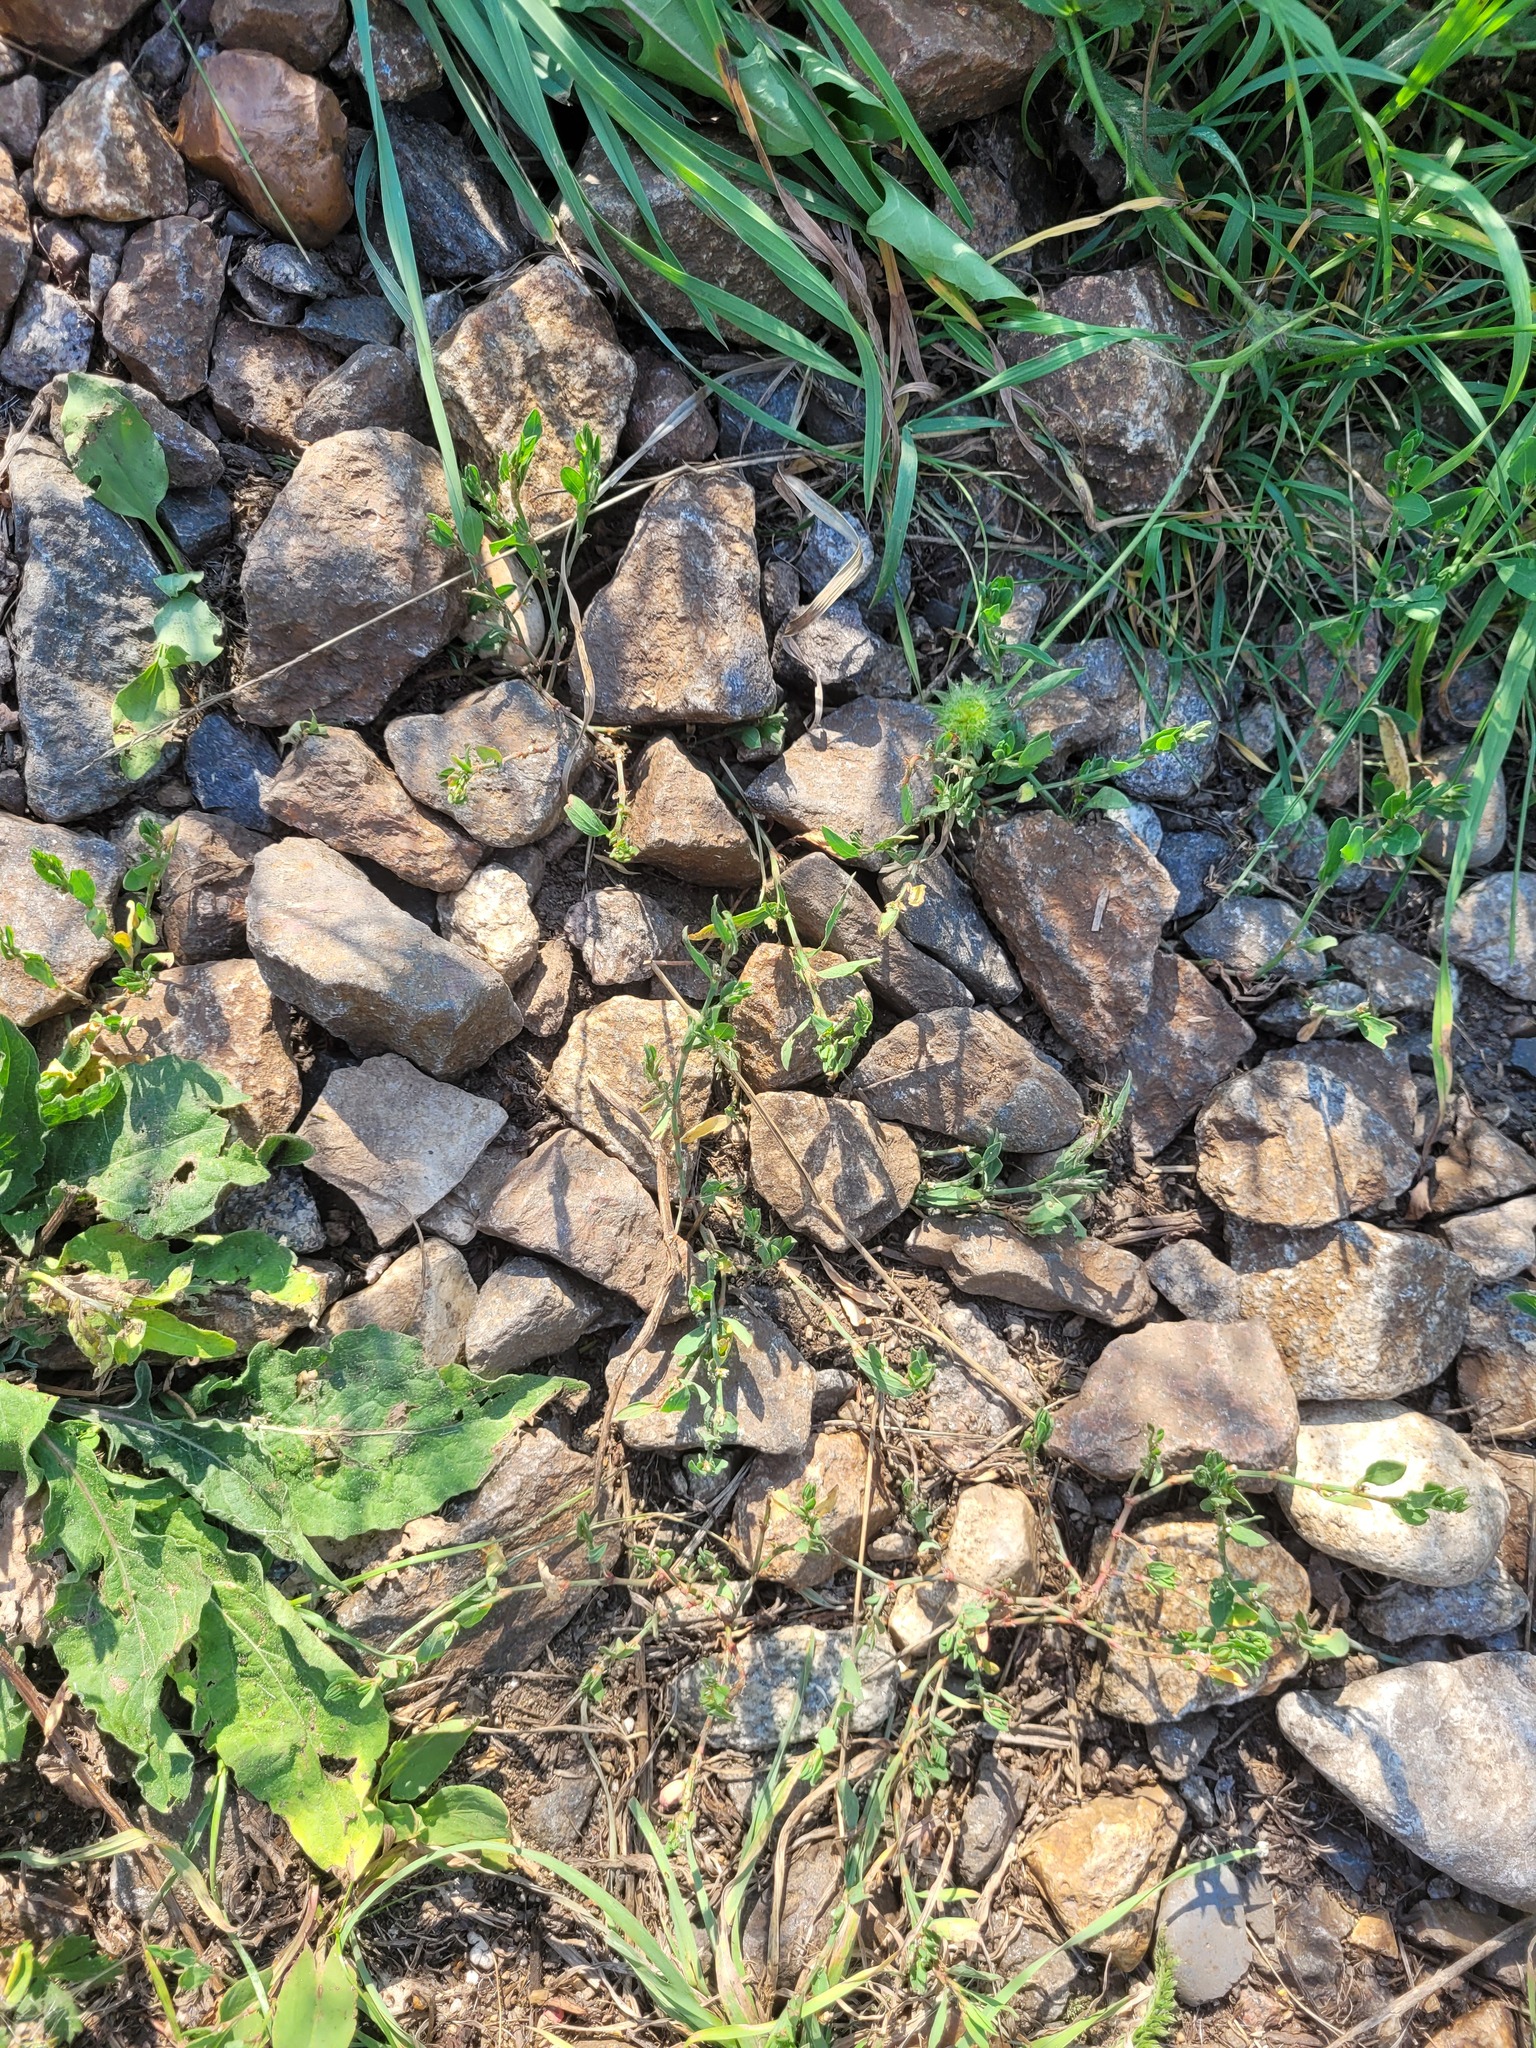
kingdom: Plantae
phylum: Tracheophyta
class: Magnoliopsida
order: Caryophyllales
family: Polygonaceae
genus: Polygonum
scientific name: Polygonum
